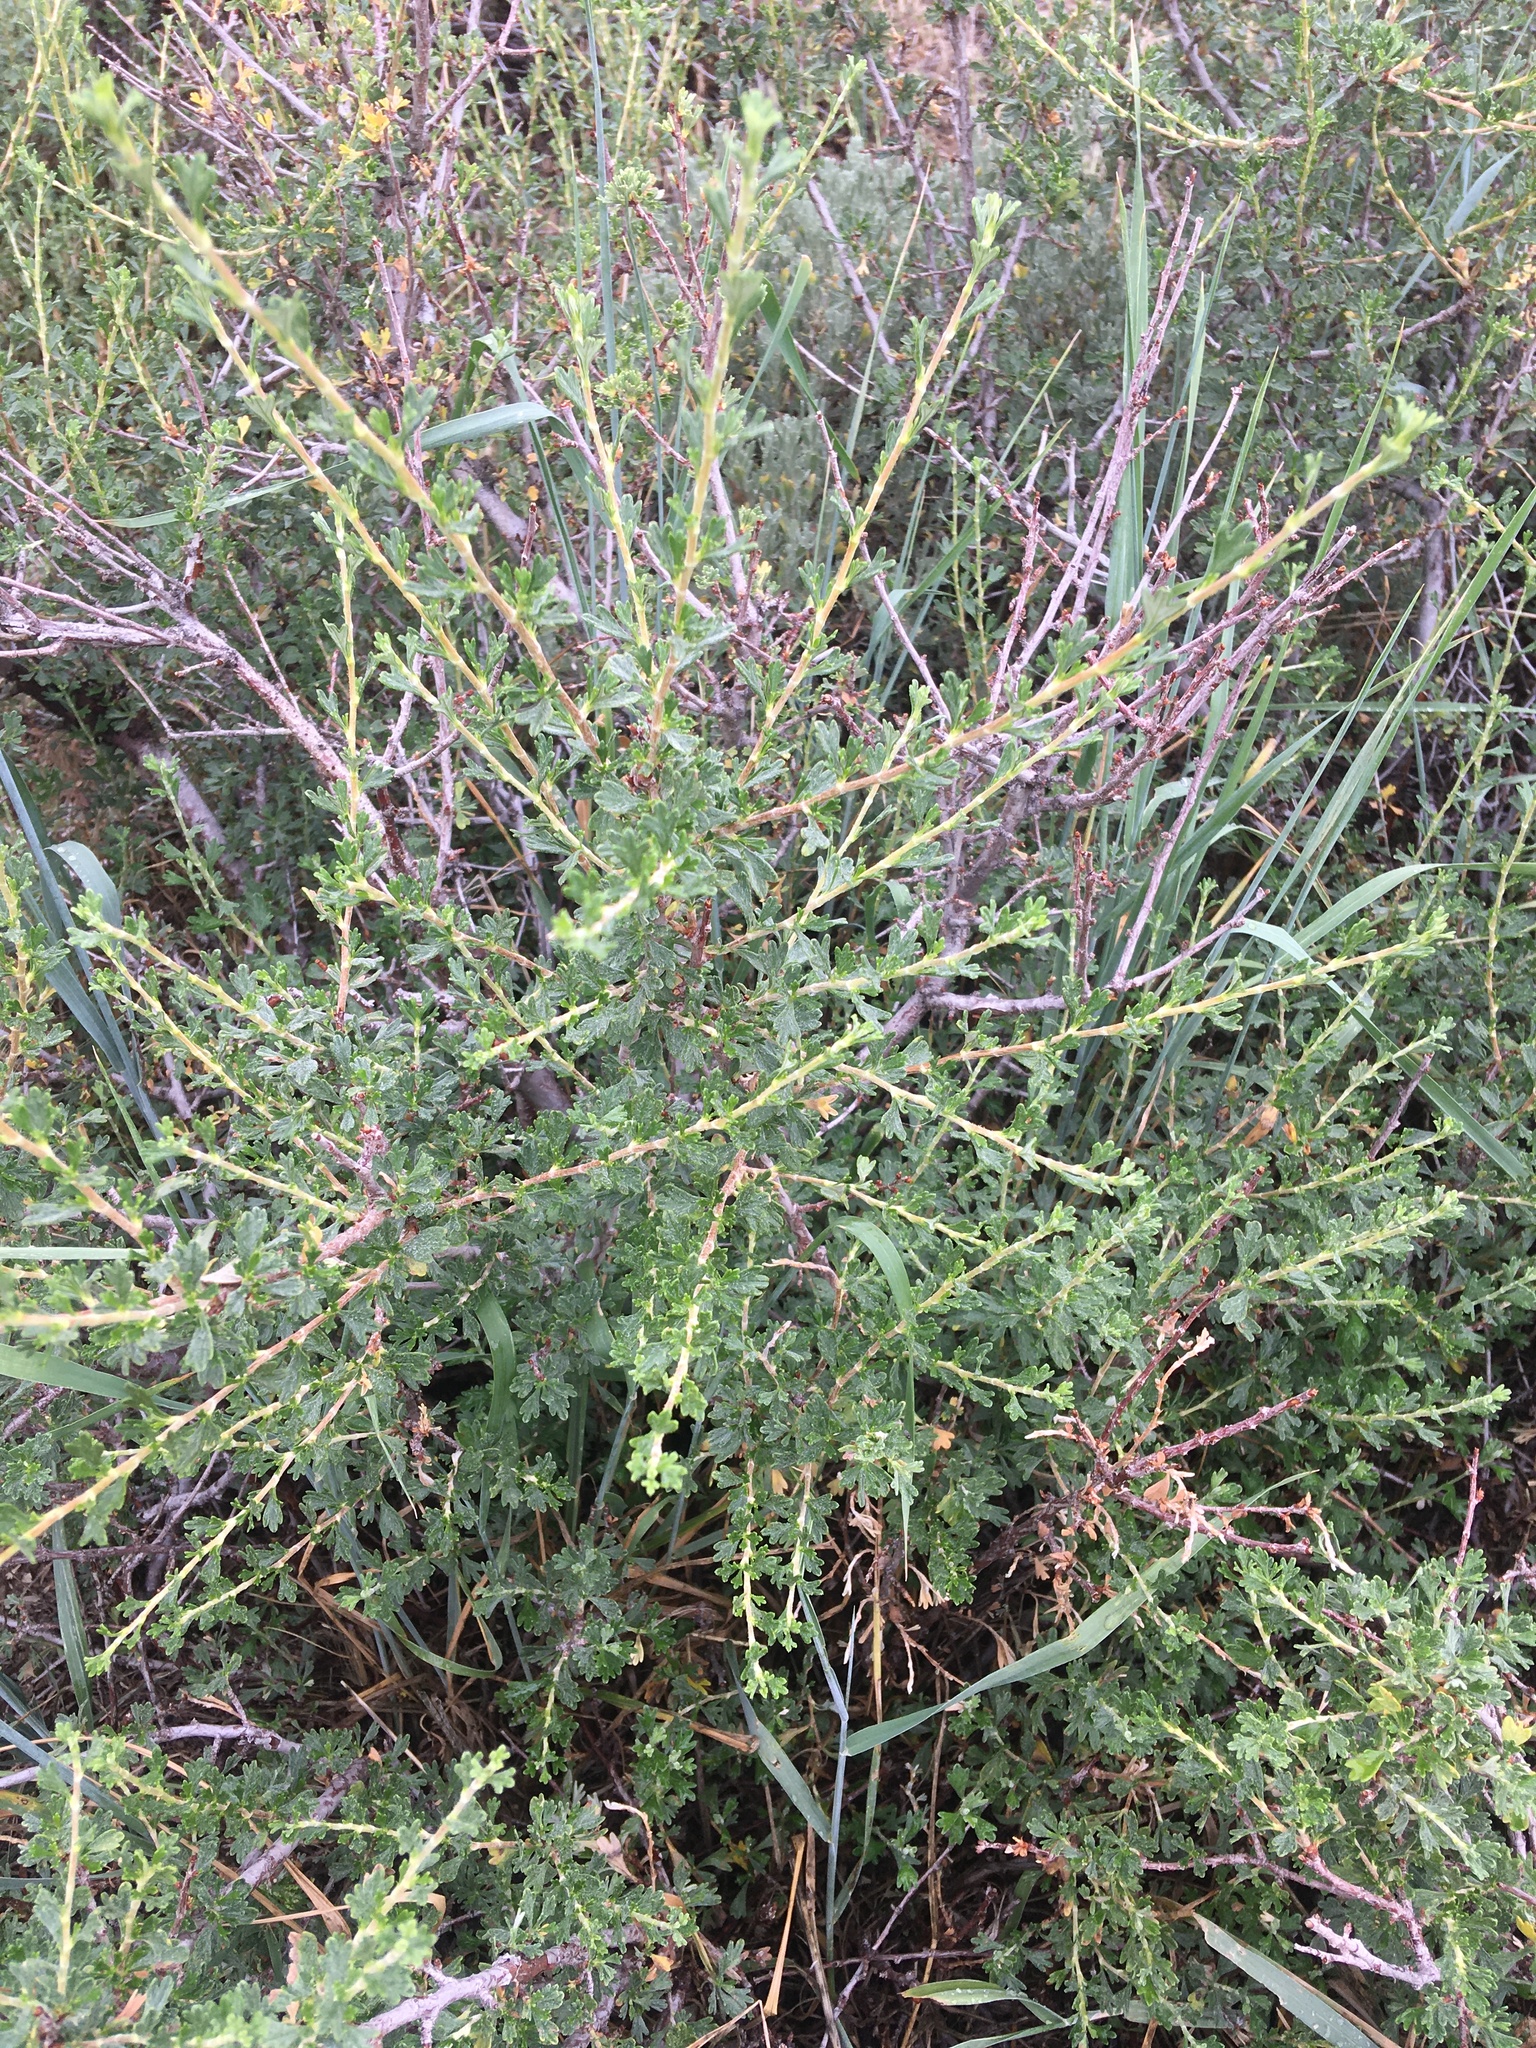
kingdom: Plantae
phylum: Tracheophyta
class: Magnoliopsida
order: Rosales
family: Rosaceae
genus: Purshia
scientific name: Purshia tridentata
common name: Antelope bitterbrush
